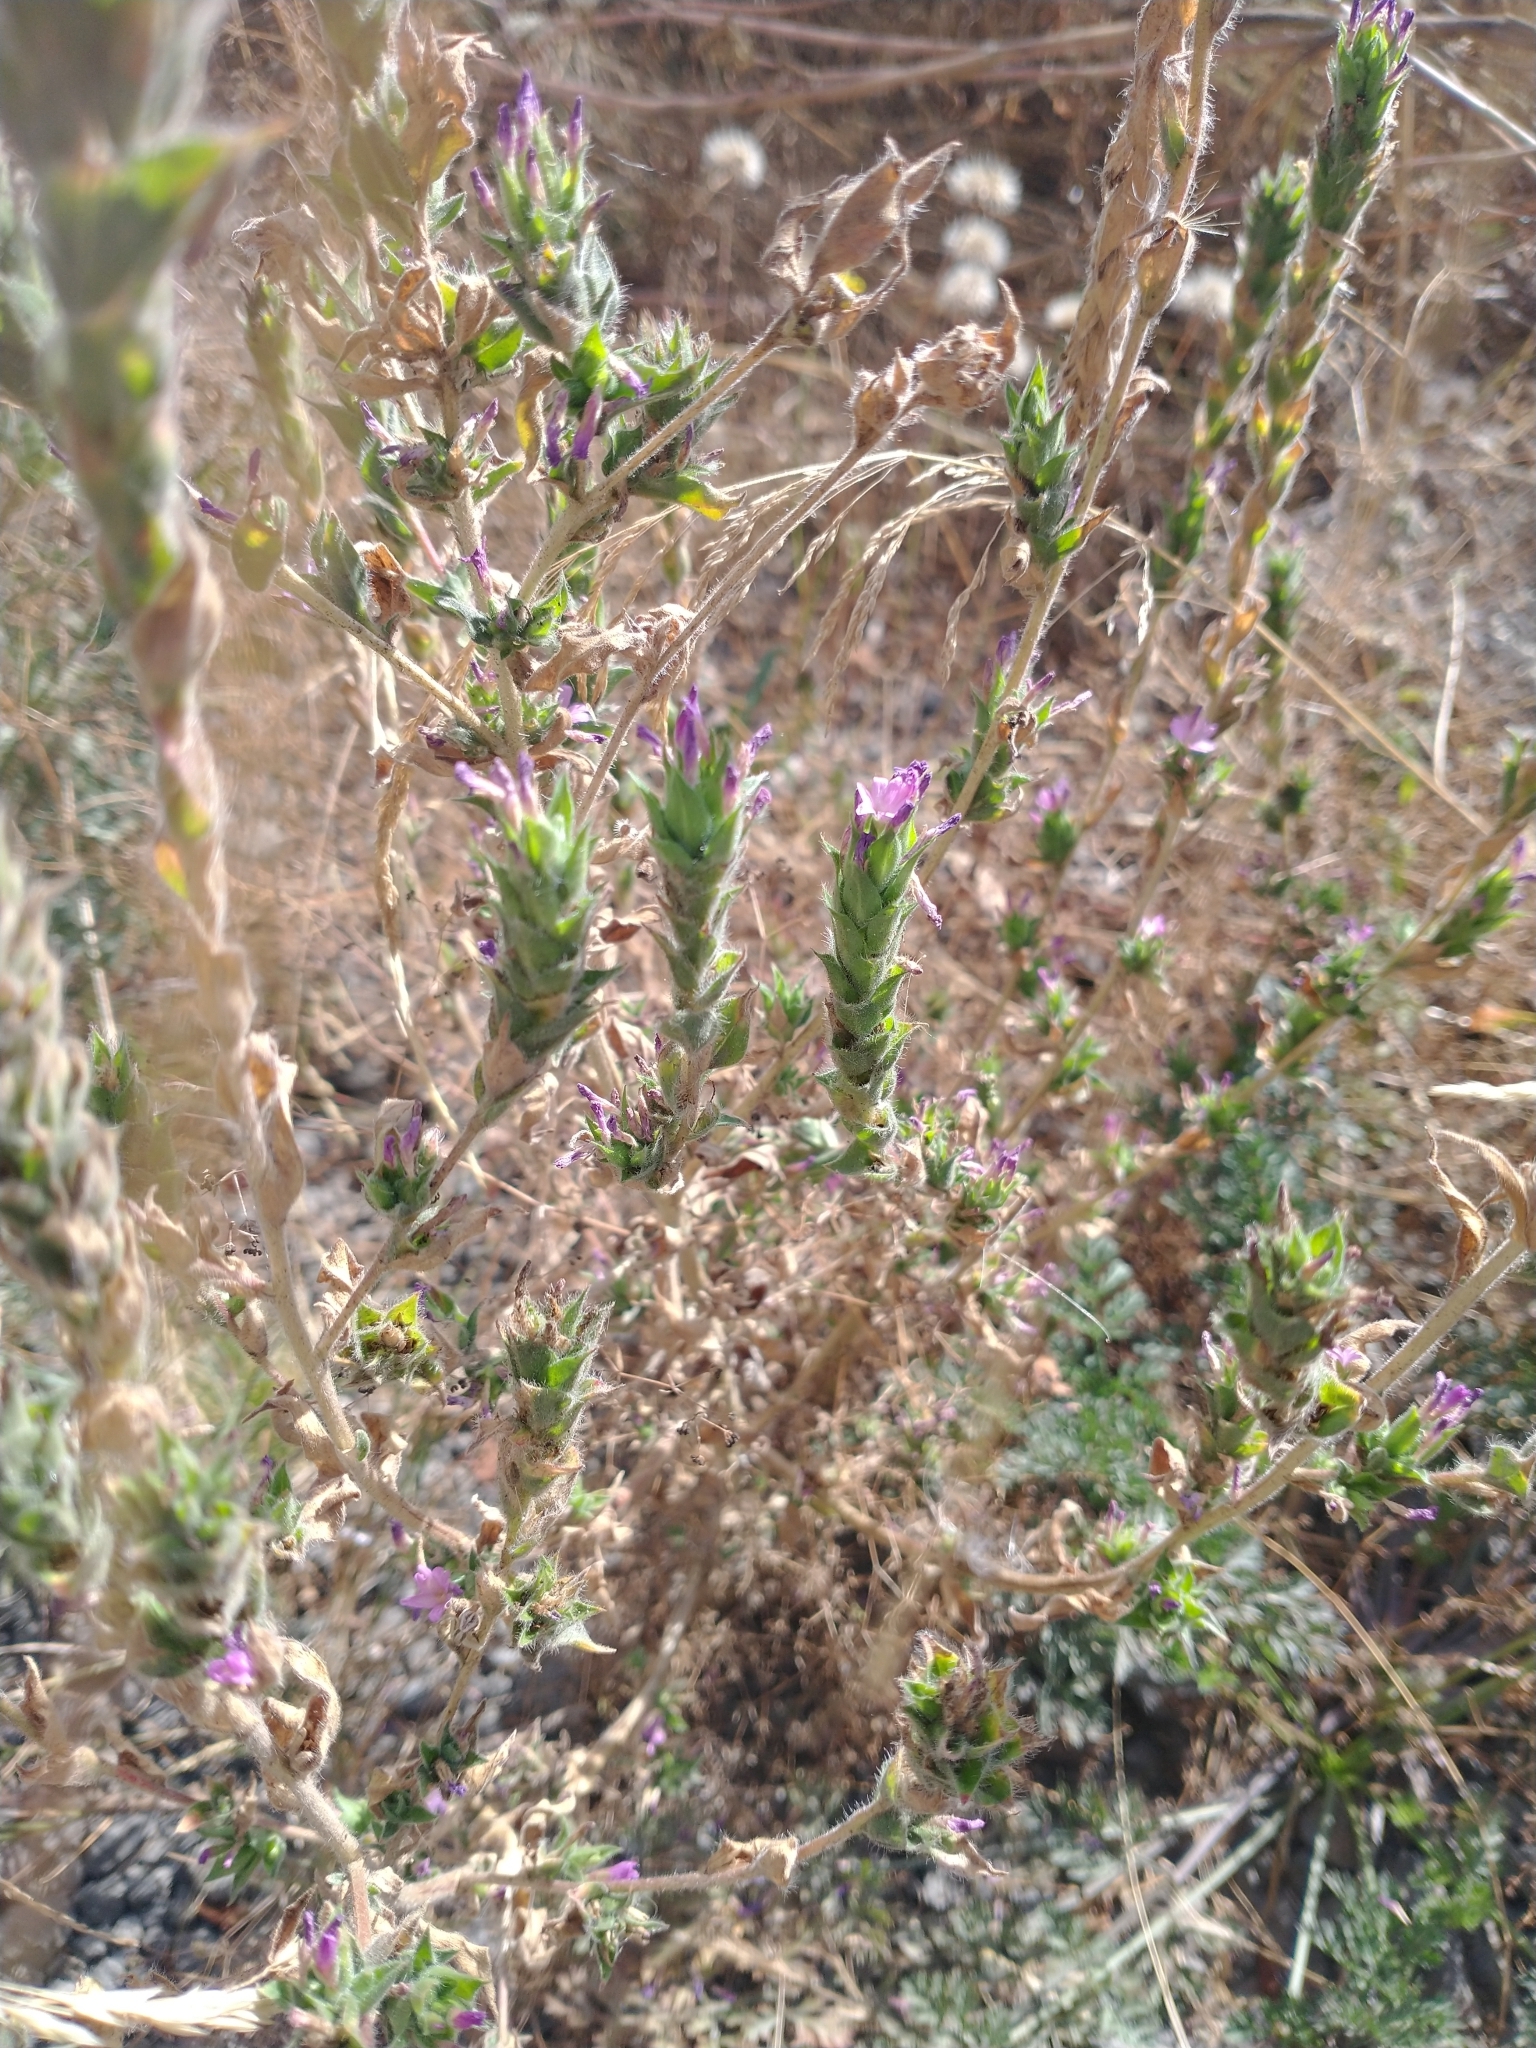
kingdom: Plantae
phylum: Tracheophyta
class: Magnoliopsida
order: Myrtales
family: Onagraceae
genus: Epilobium
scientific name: Epilobium densiflorum
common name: Dense spike-primrose
